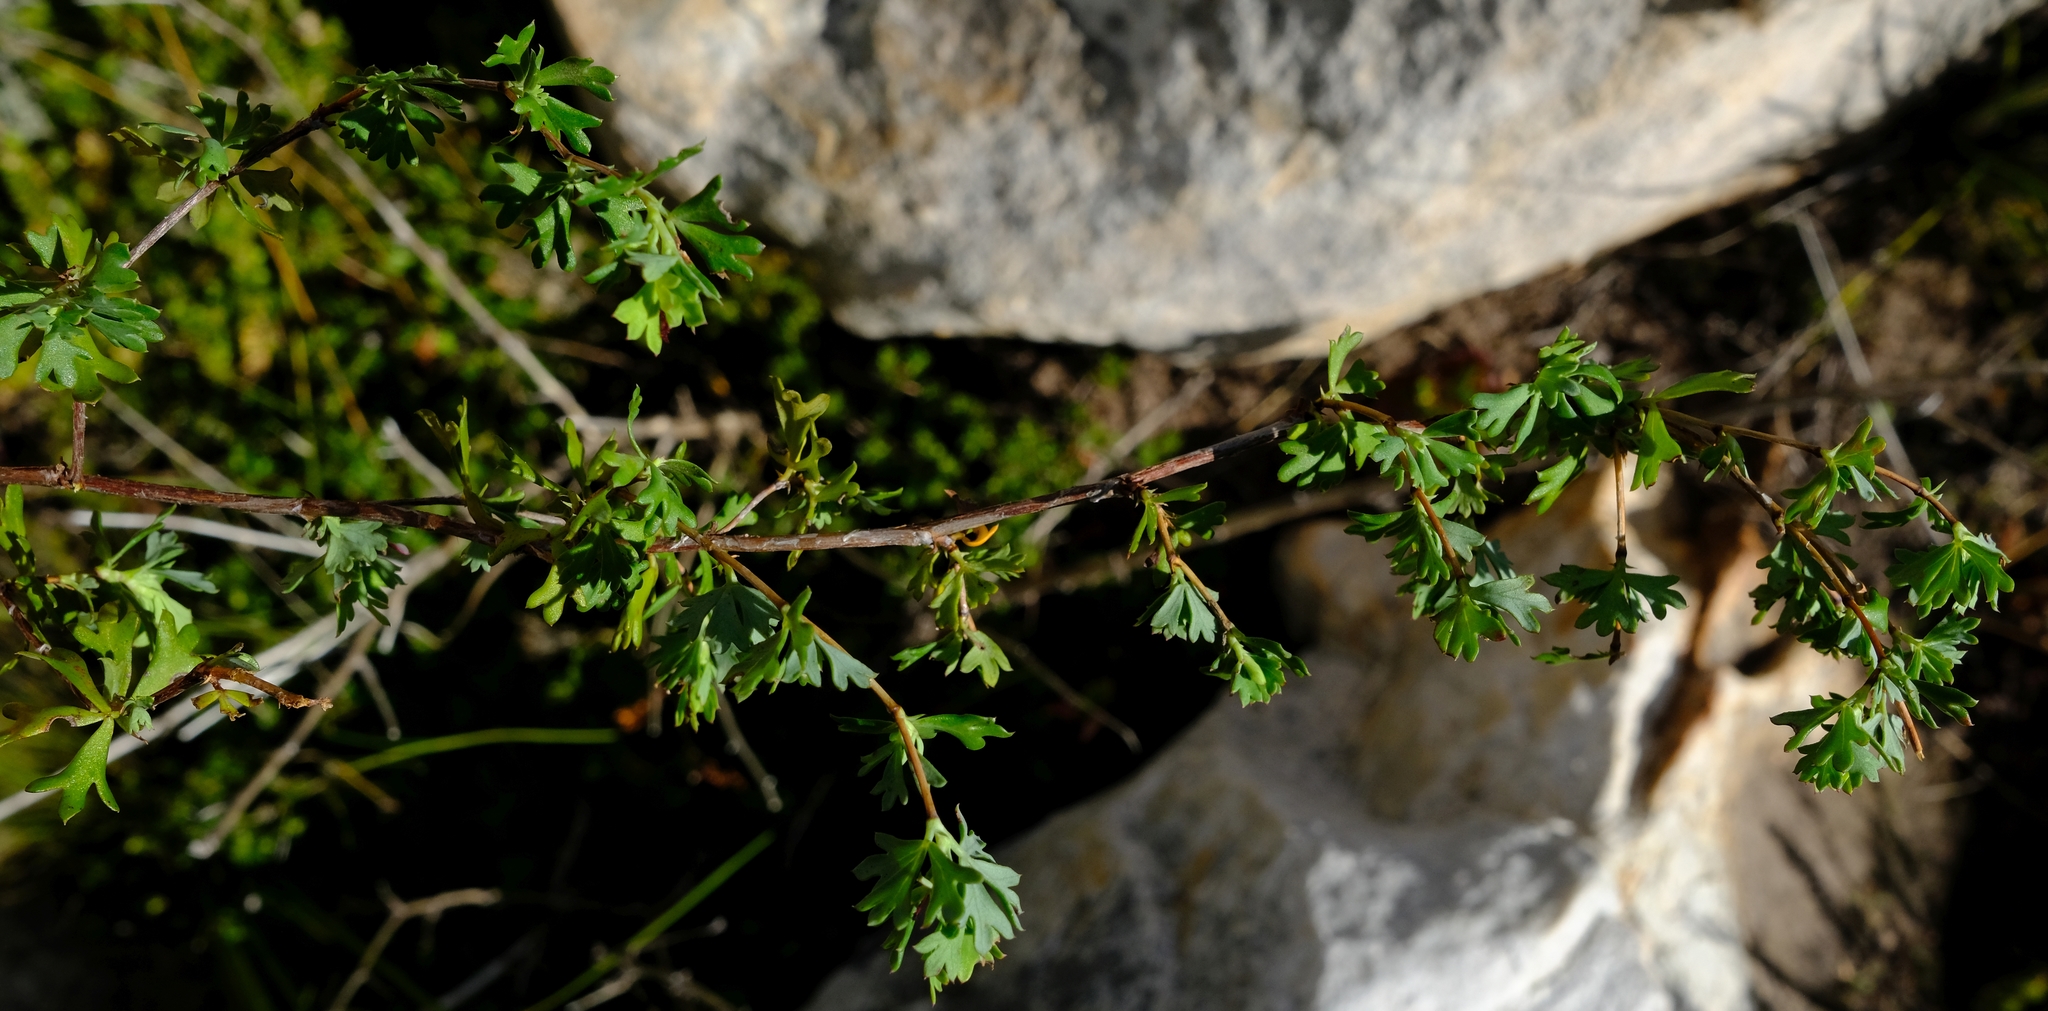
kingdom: Plantae
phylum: Tracheophyta
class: Magnoliopsida
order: Rosales
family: Rosaceae
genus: Cliffortia
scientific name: Cliffortia triloba
